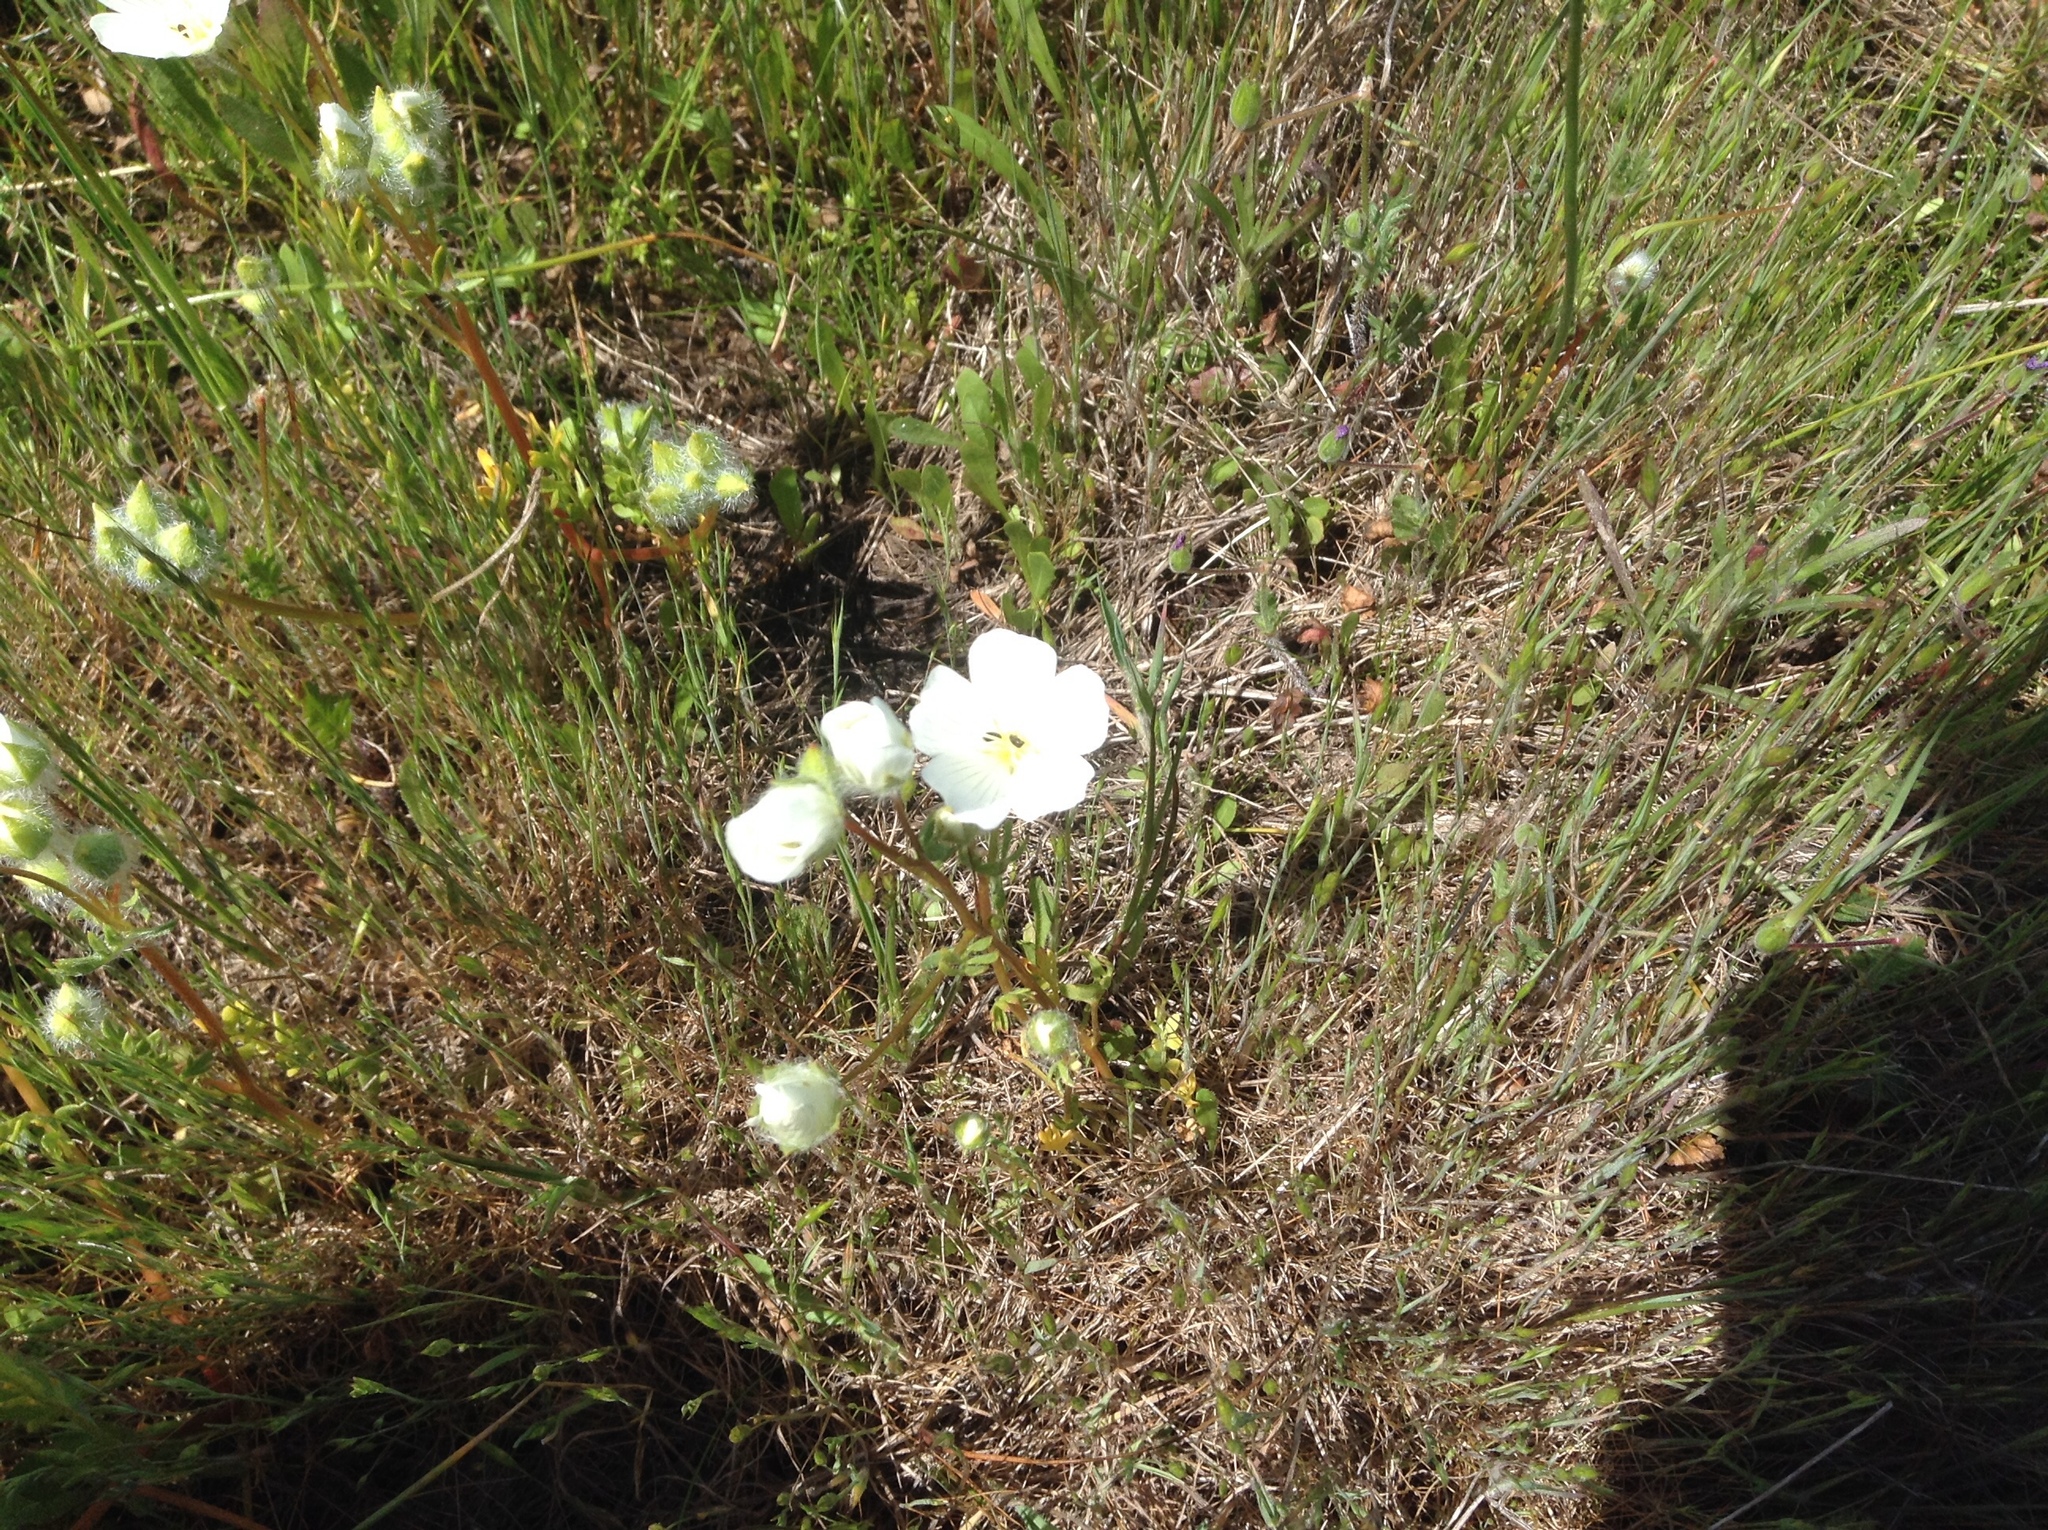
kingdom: Plantae
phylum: Tracheophyta
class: Magnoliopsida
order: Brassicales
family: Limnanthaceae
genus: Limnanthes
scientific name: Limnanthes alba
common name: Meadowfoam
